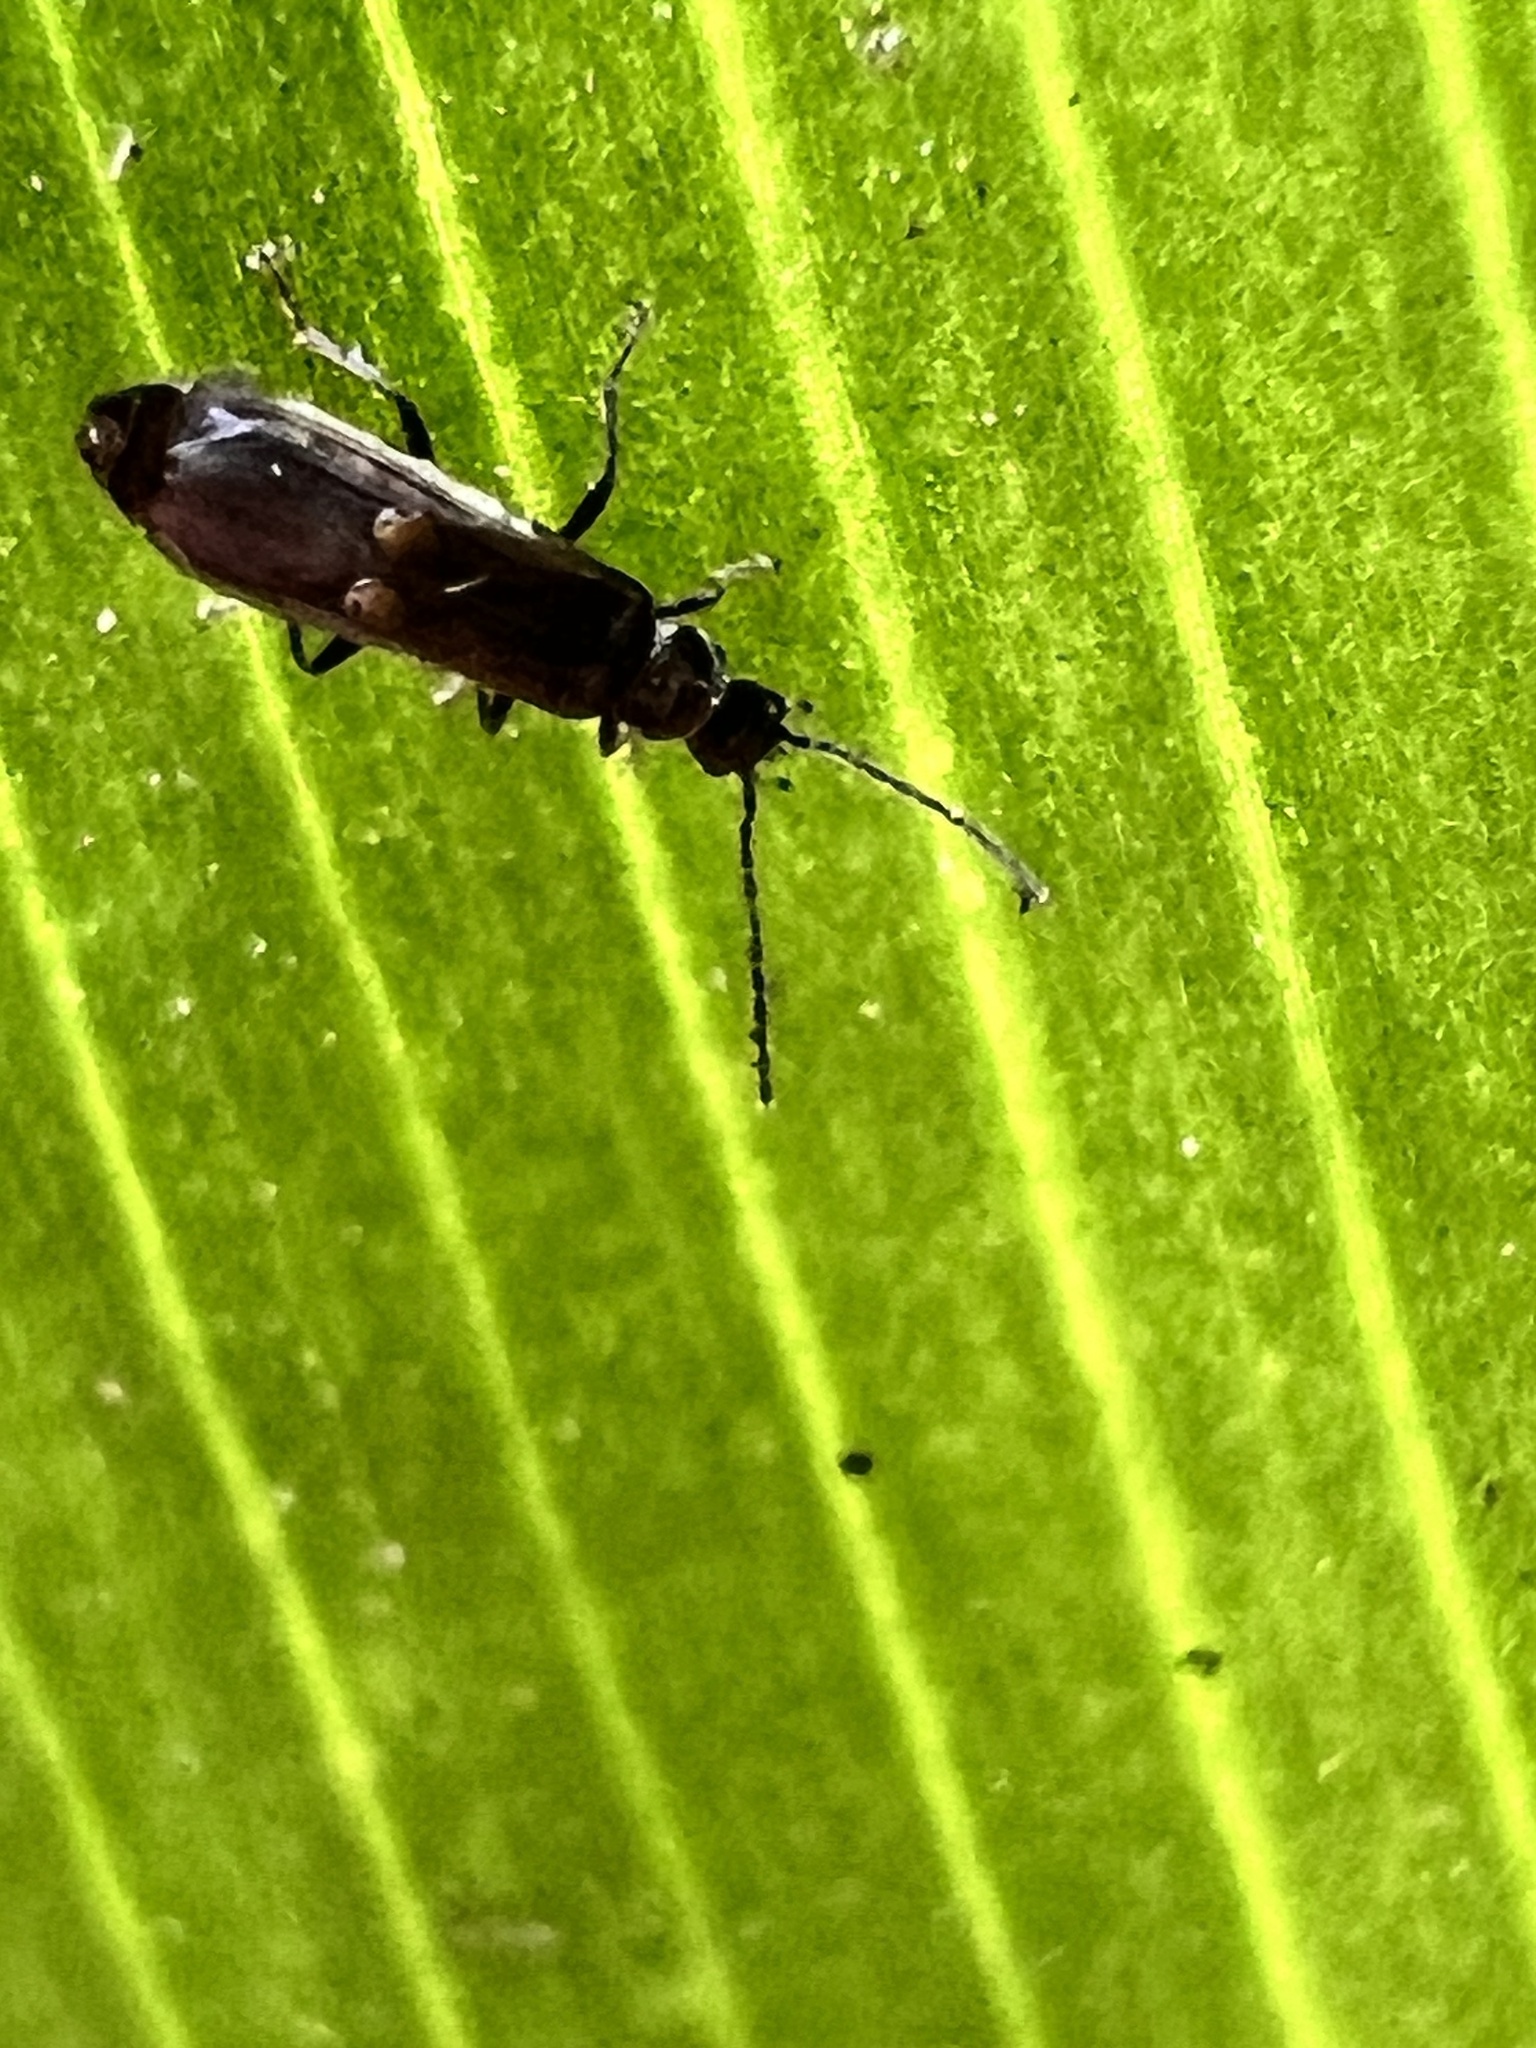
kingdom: Animalia
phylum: Arthropoda
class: Insecta
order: Coleoptera
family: Cantharidae
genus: Malthodes
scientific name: Malthodes pumilus
